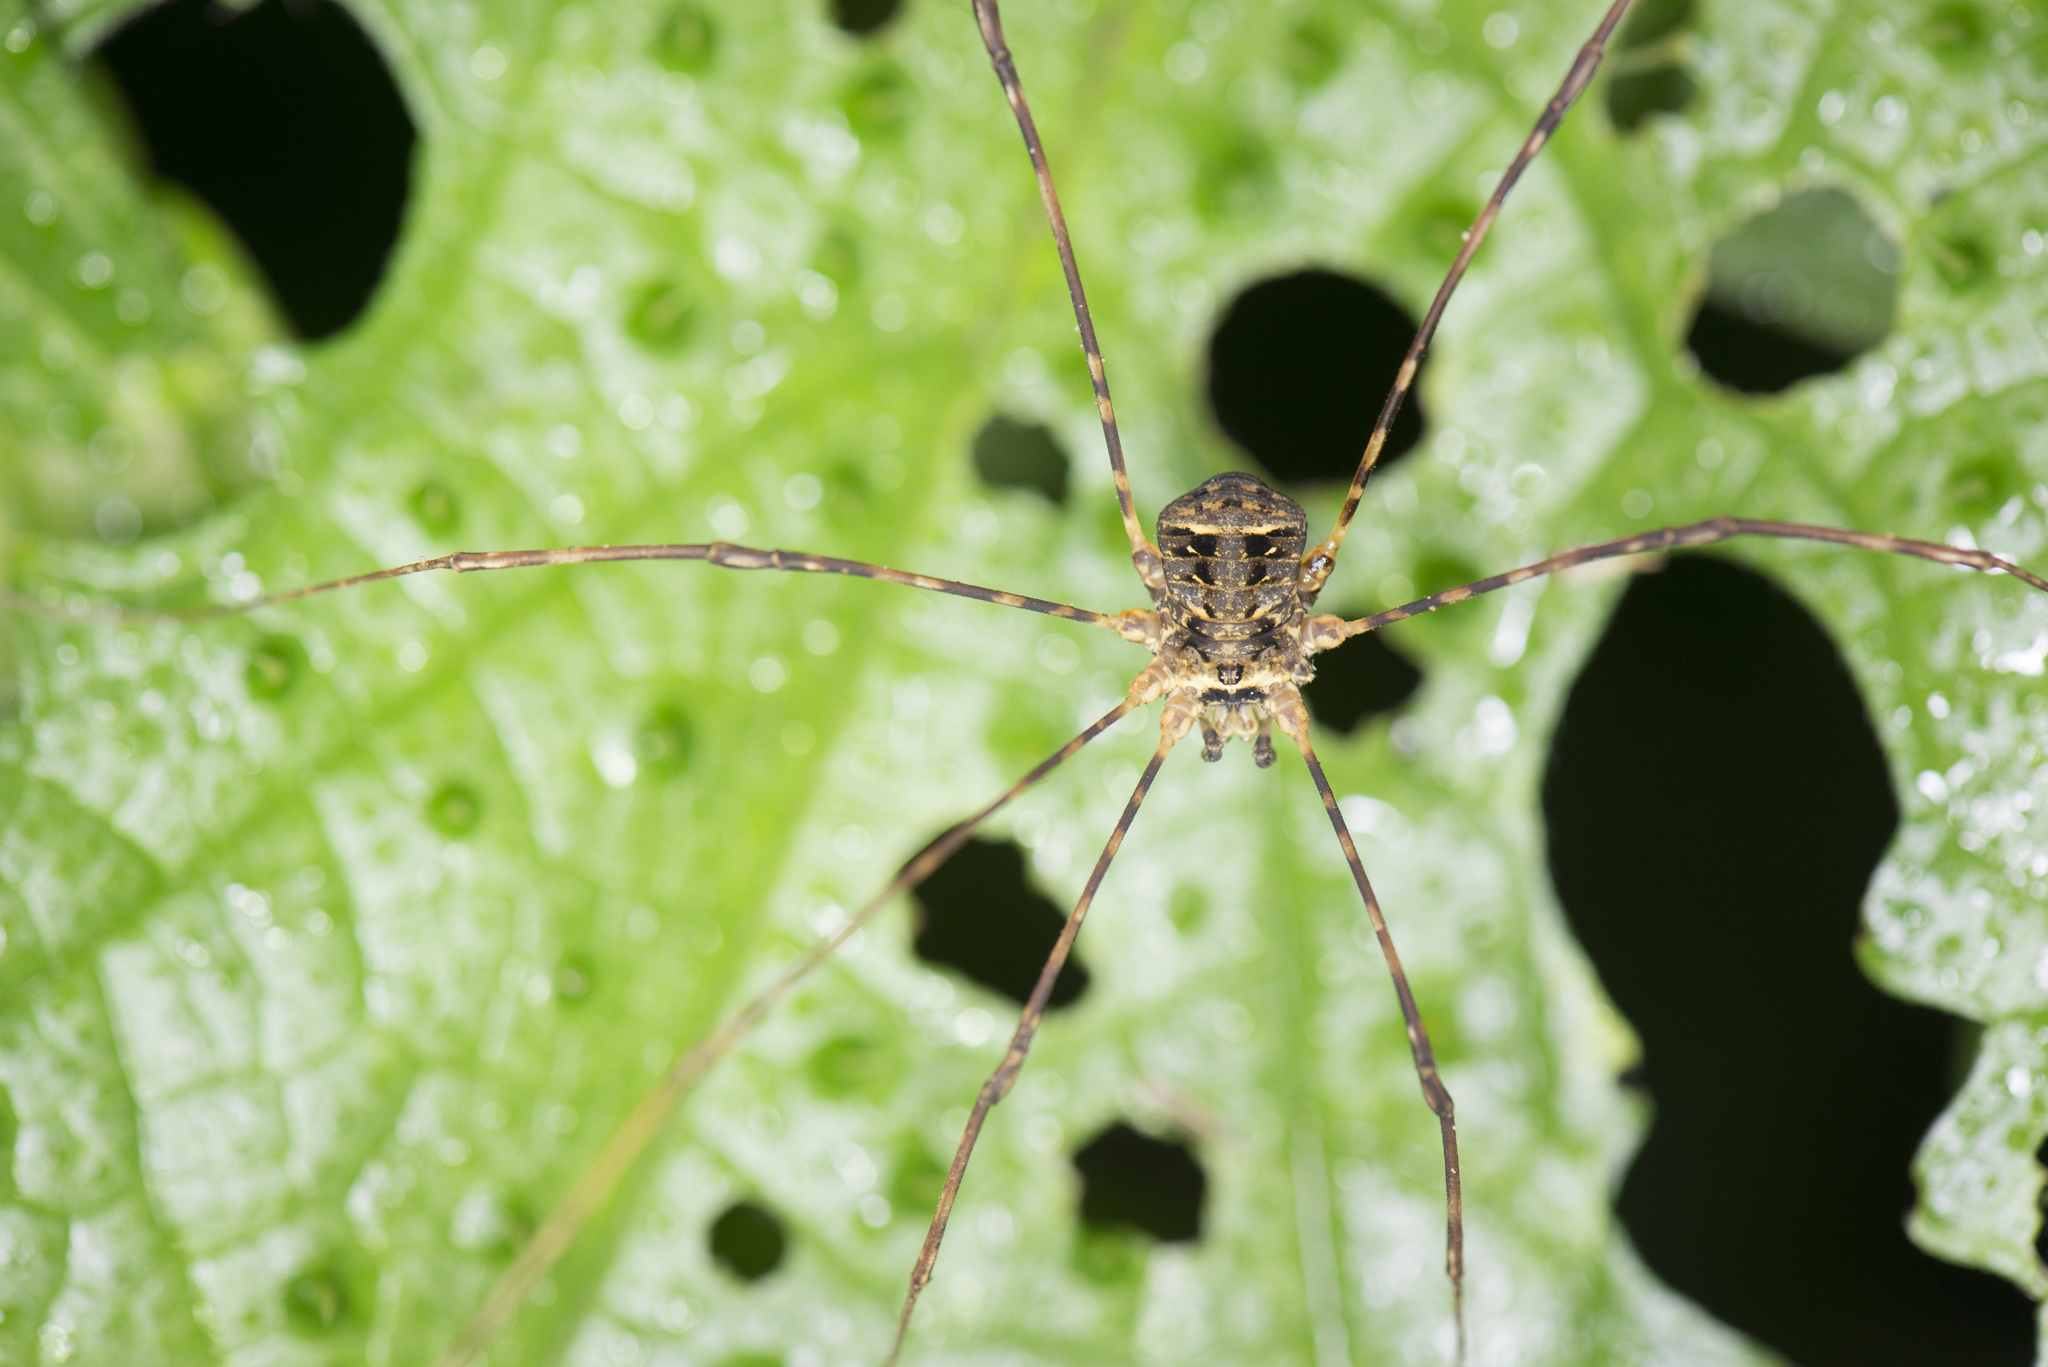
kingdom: Animalia
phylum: Arthropoda
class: Arachnida
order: Opiliones
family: Sclerosomatidae
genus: Leiobunum
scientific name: Leiobunum maximum
